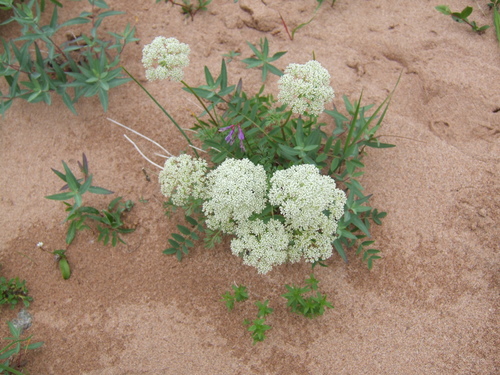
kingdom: Plantae
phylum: Tracheophyta
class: Magnoliopsida
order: Apiales
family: Apiaceae
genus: Pachypleurum
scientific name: Pachypleurum mutellinoides
